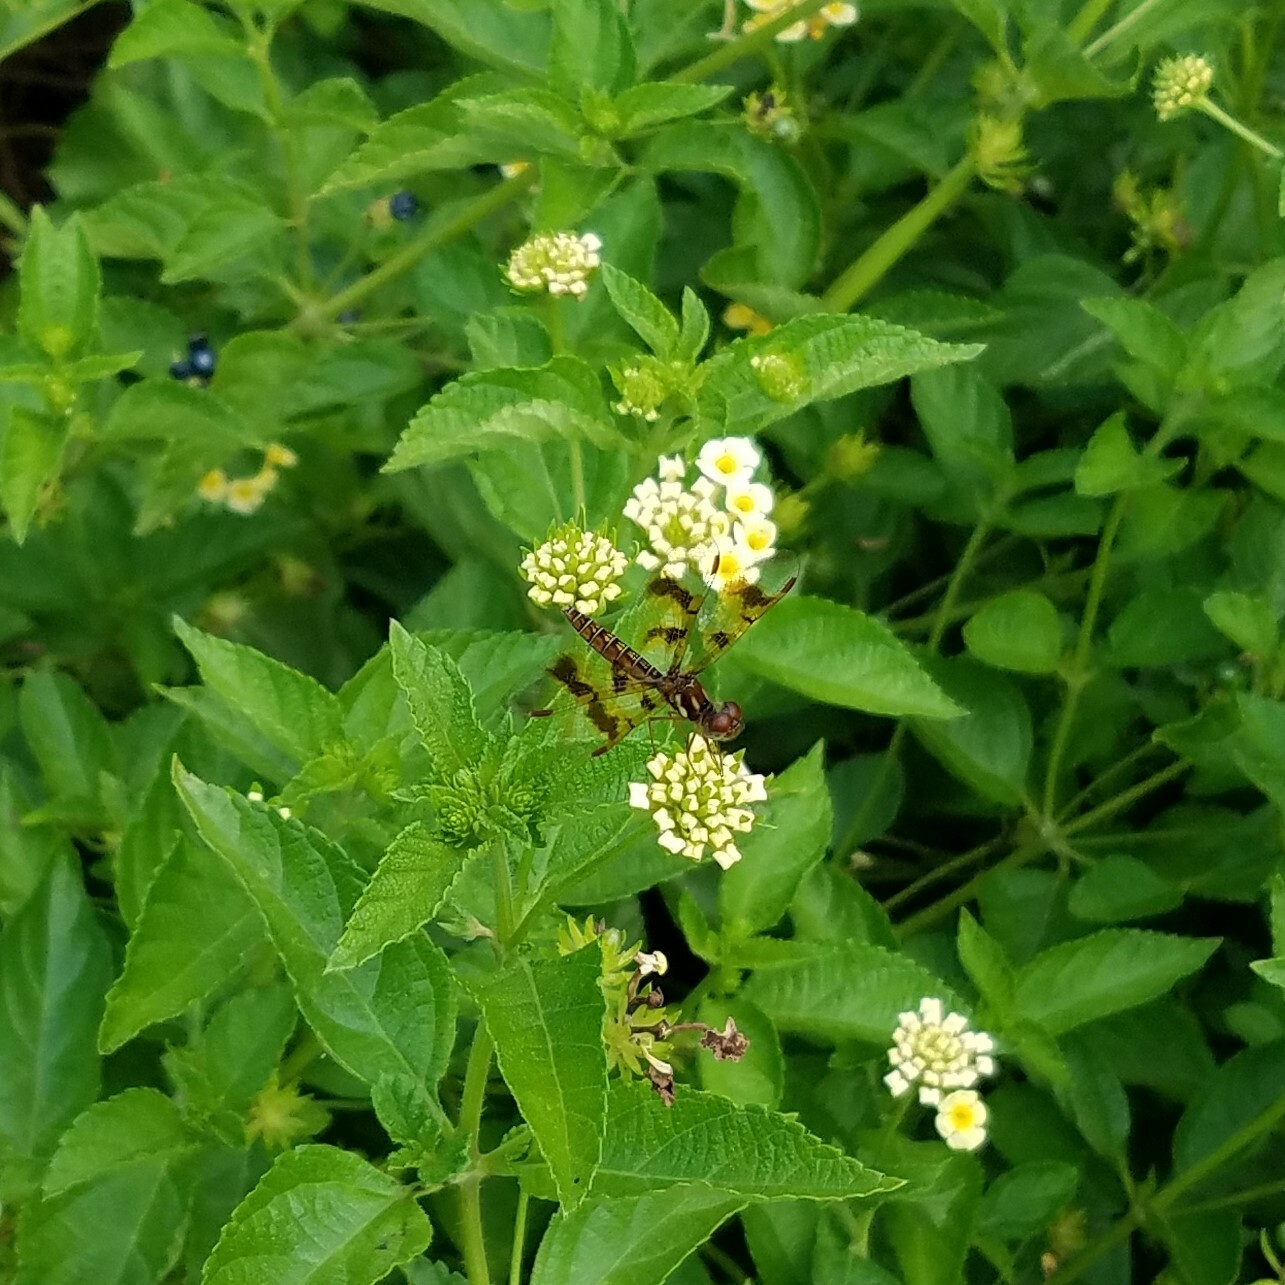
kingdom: Animalia
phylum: Arthropoda
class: Insecta
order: Odonata
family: Libellulidae
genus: Perithemis
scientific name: Perithemis tenera
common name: Eastern amberwing
